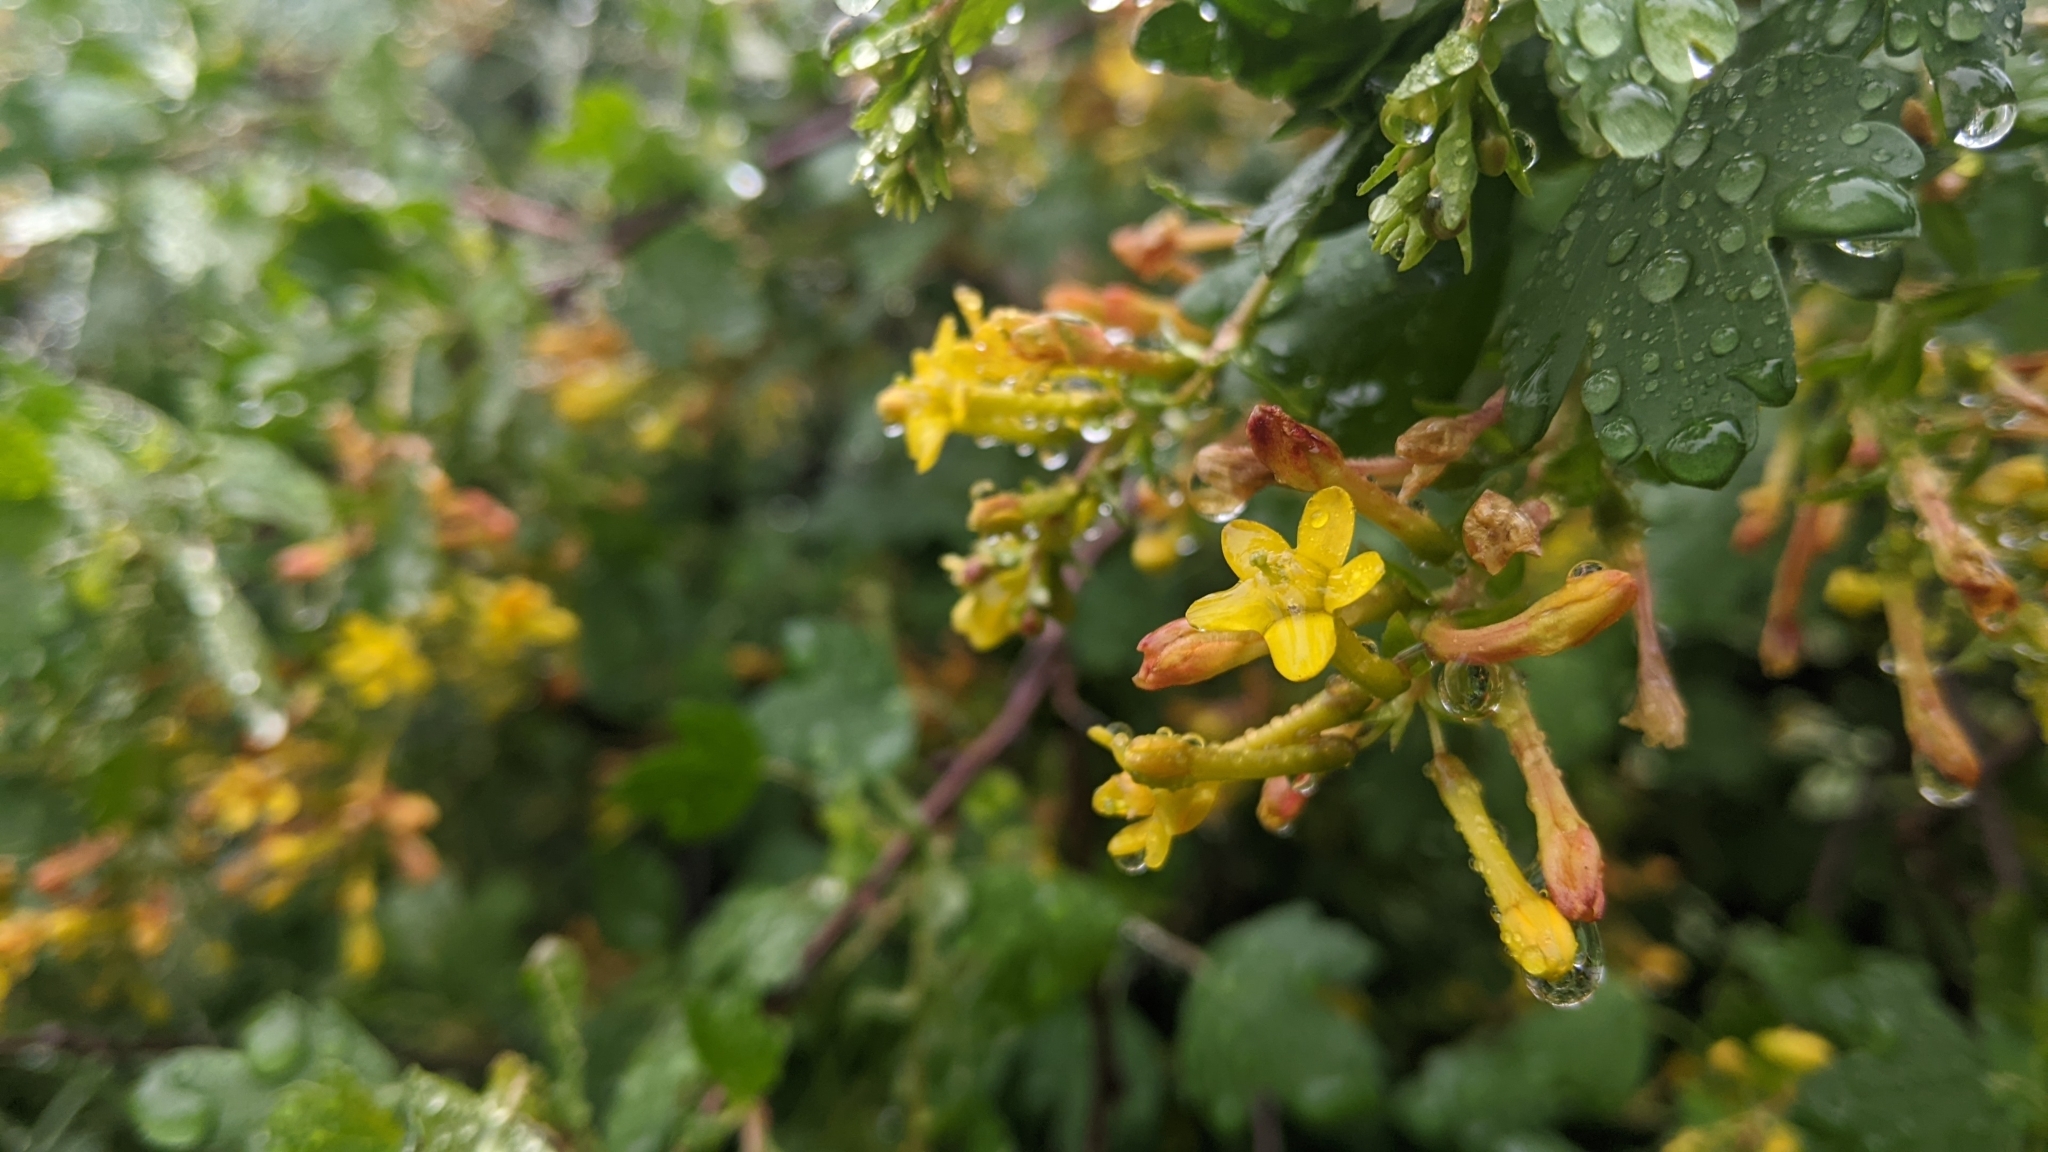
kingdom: Plantae
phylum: Tracheophyta
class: Magnoliopsida
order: Saxifragales
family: Grossulariaceae
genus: Ribes
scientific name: Ribes aureum
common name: Golden currant
